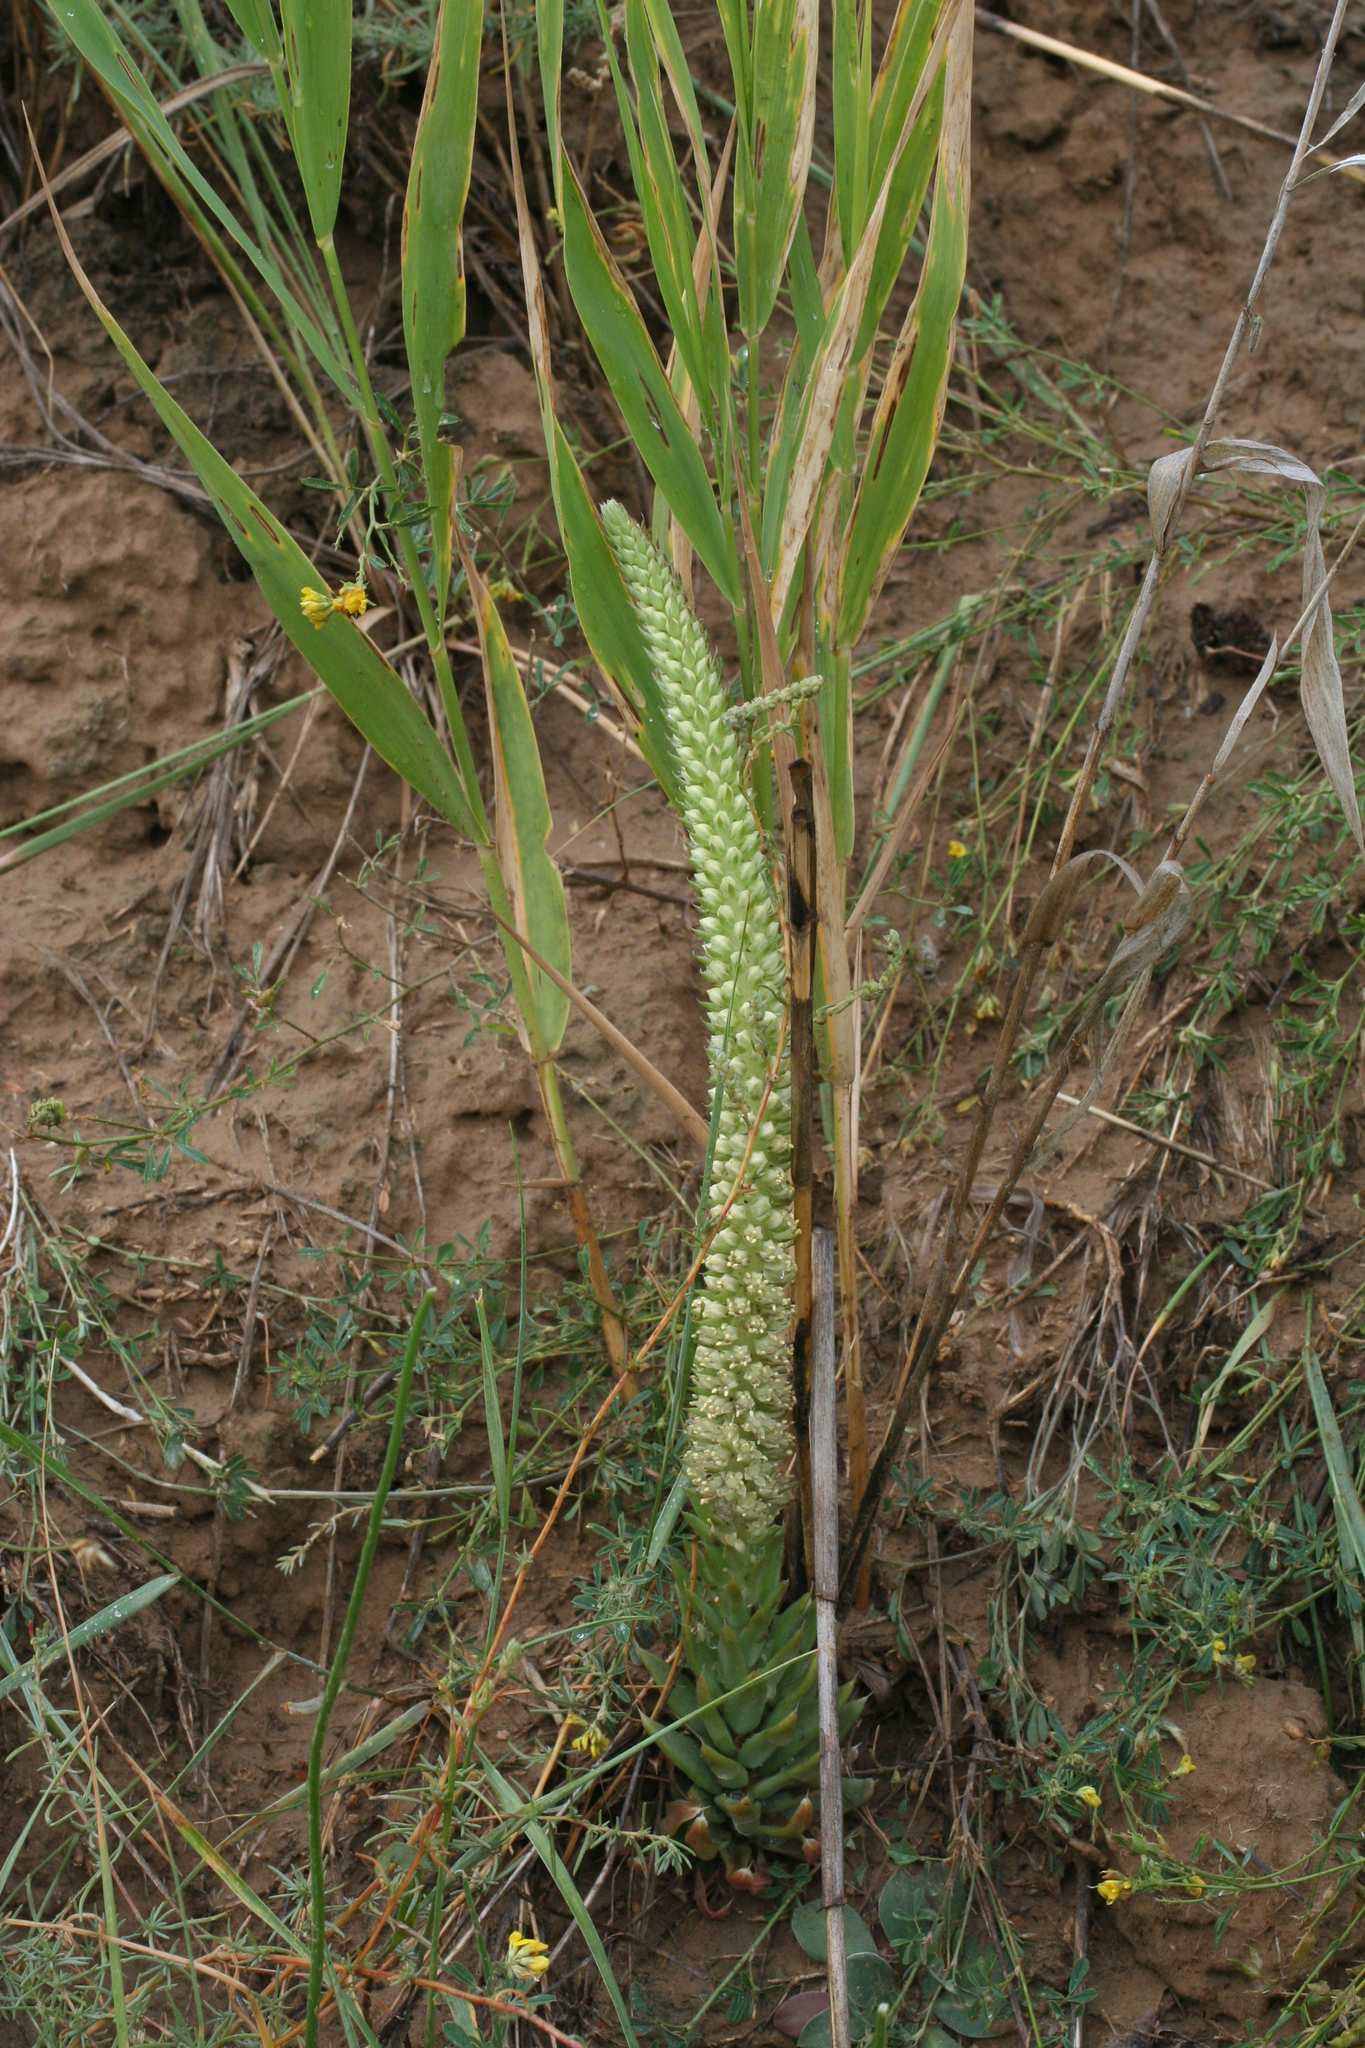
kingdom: Plantae
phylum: Tracheophyta
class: Magnoliopsida
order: Saxifragales
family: Crassulaceae
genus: Orostachys
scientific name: Orostachys spinosa
